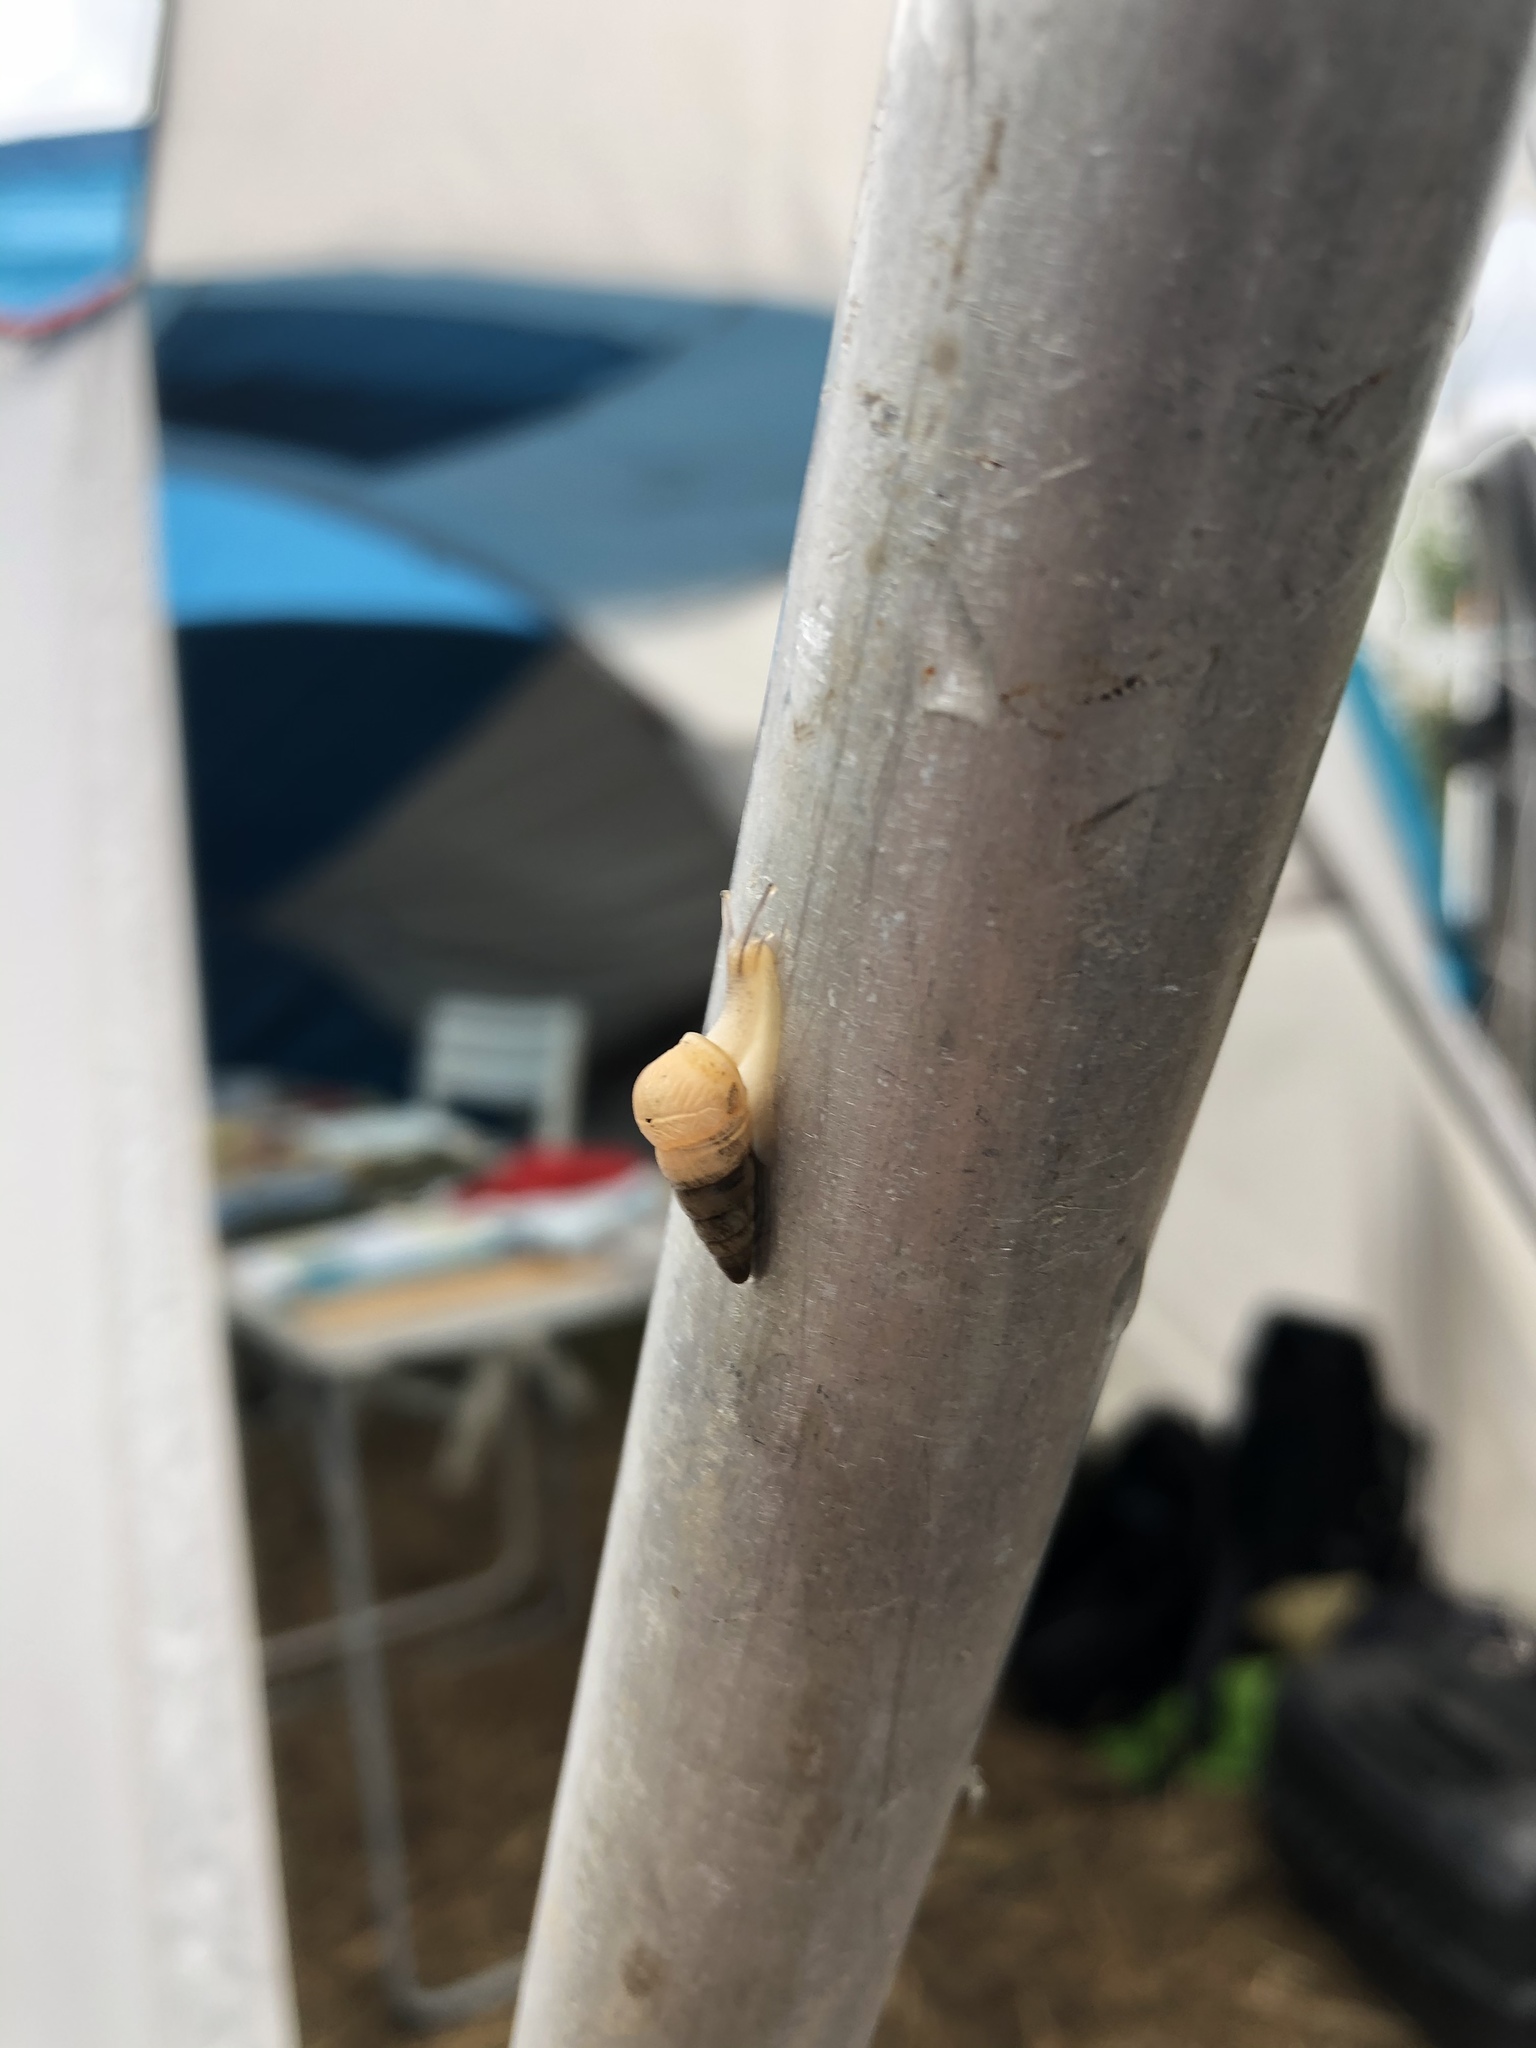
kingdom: Animalia
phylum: Mollusca
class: Gastropoda
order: Stylommatophora
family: Geomitridae
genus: Cochlicella
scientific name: Cochlicella acuta
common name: Pointed snail
